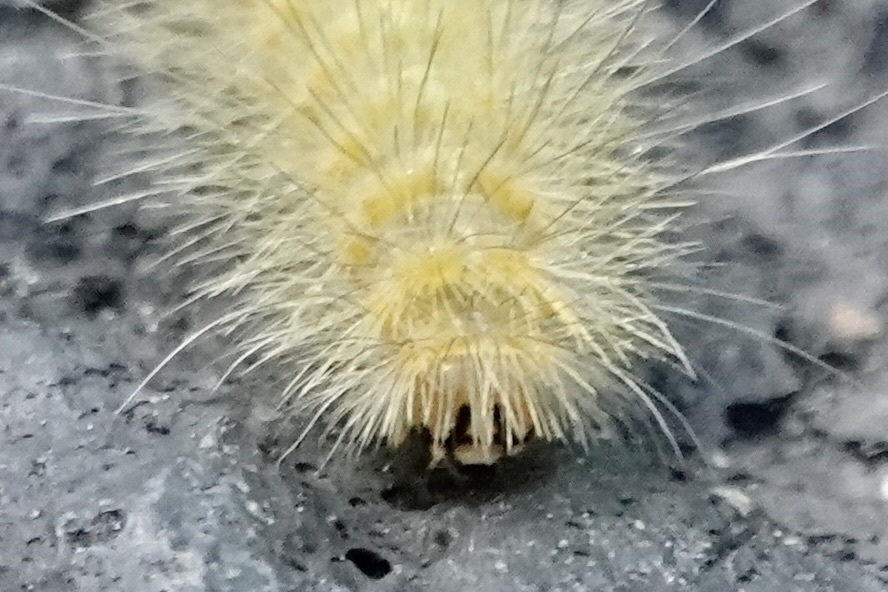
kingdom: Animalia
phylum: Arthropoda
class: Insecta
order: Lepidoptera
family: Erebidae
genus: Spilosoma
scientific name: Spilosoma virginica
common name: Virginia tiger moth
